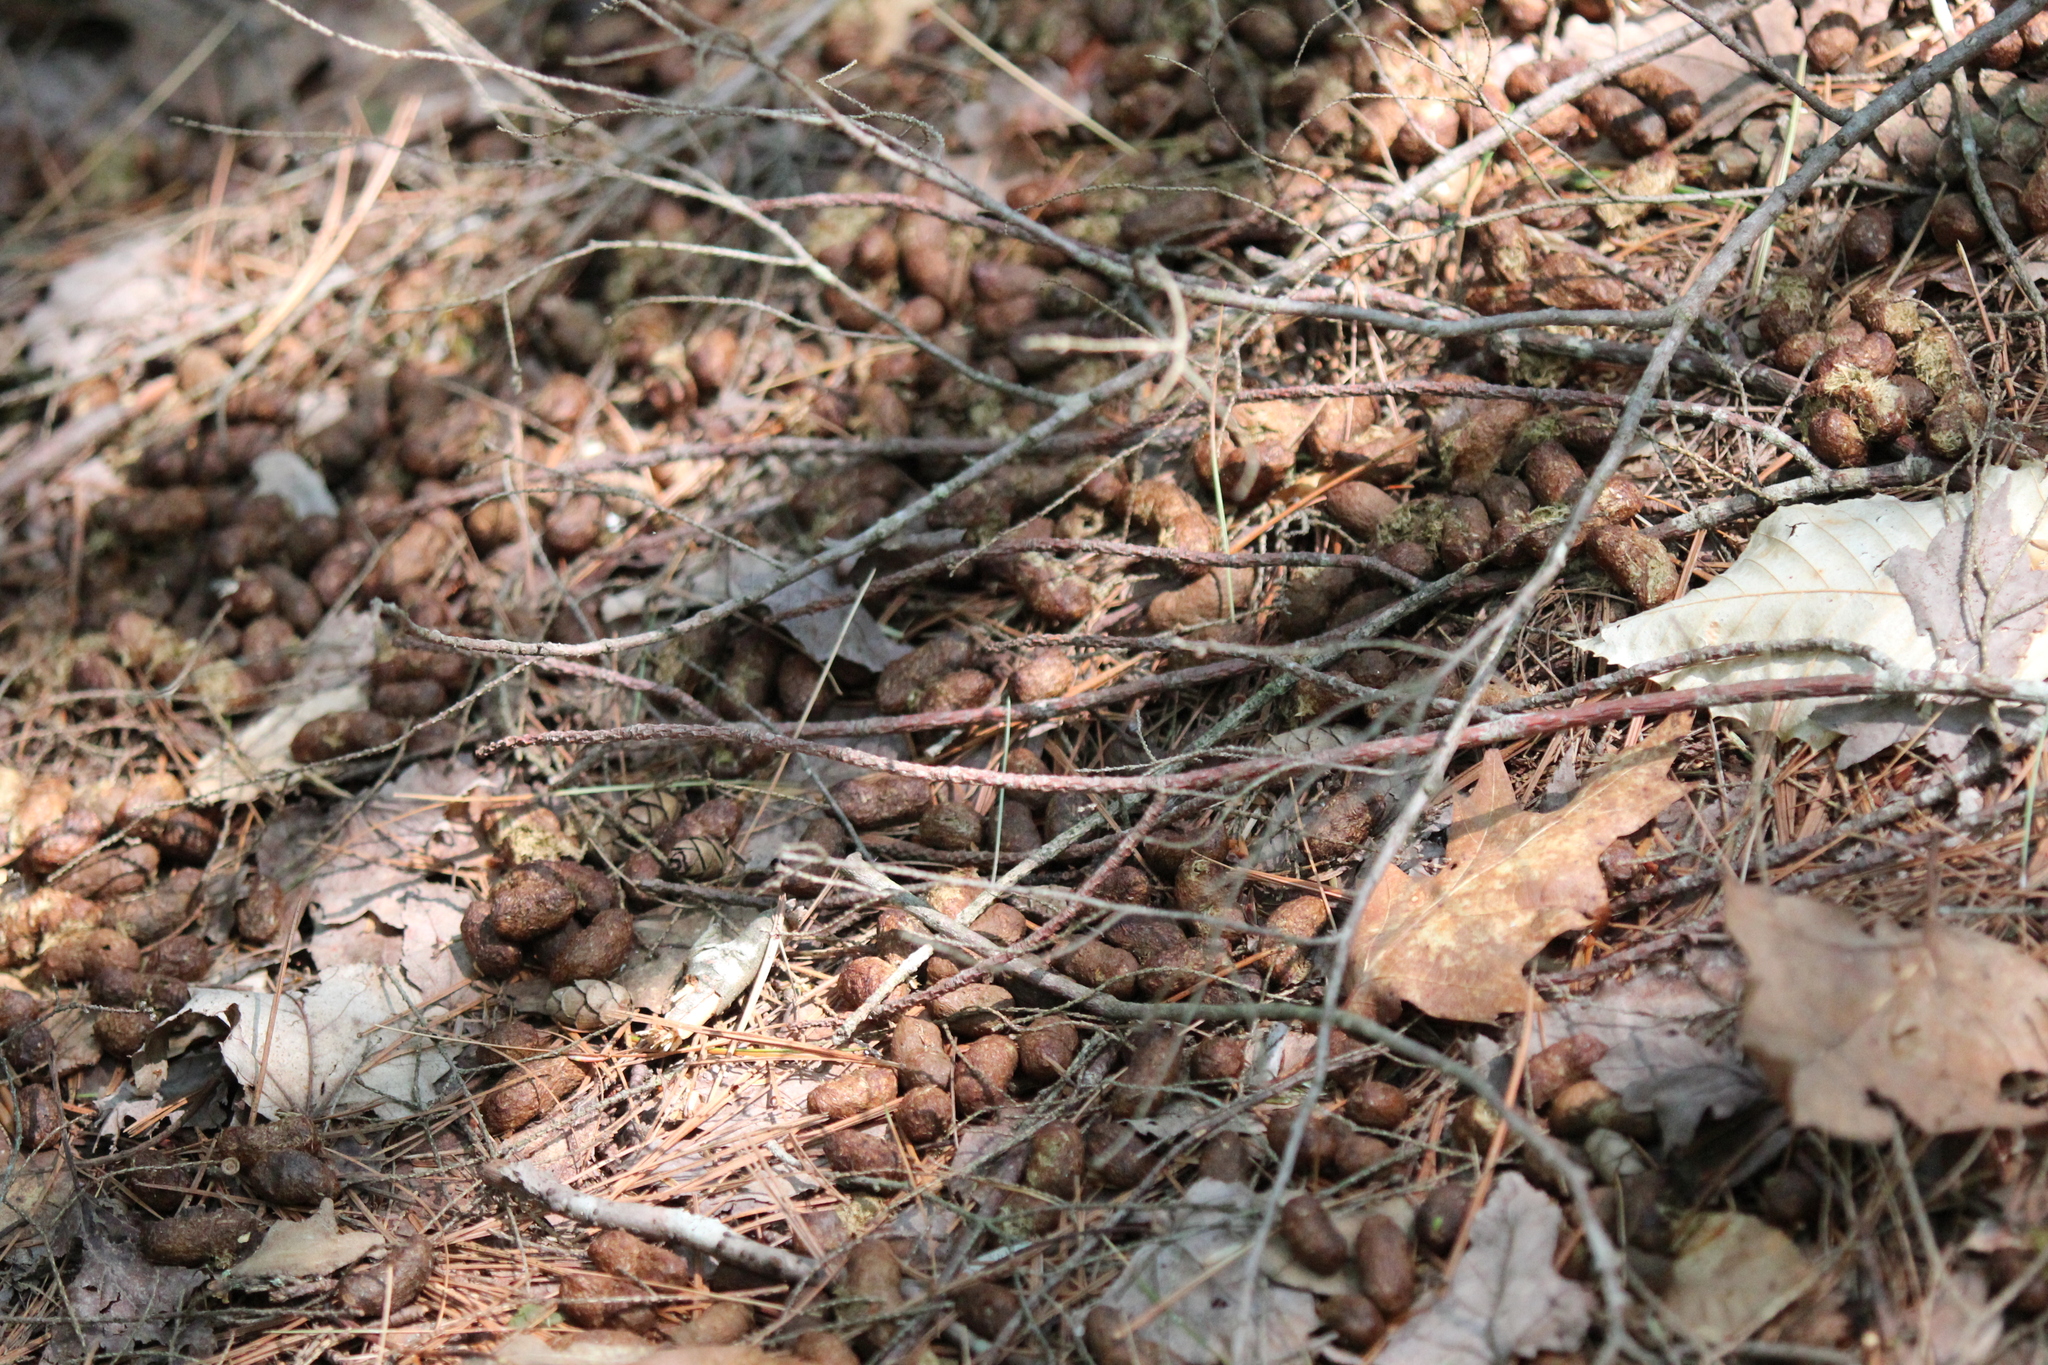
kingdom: Animalia
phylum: Chordata
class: Mammalia
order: Rodentia
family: Erethizontidae
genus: Erethizon
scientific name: Erethizon dorsatus
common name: North american porcupine
